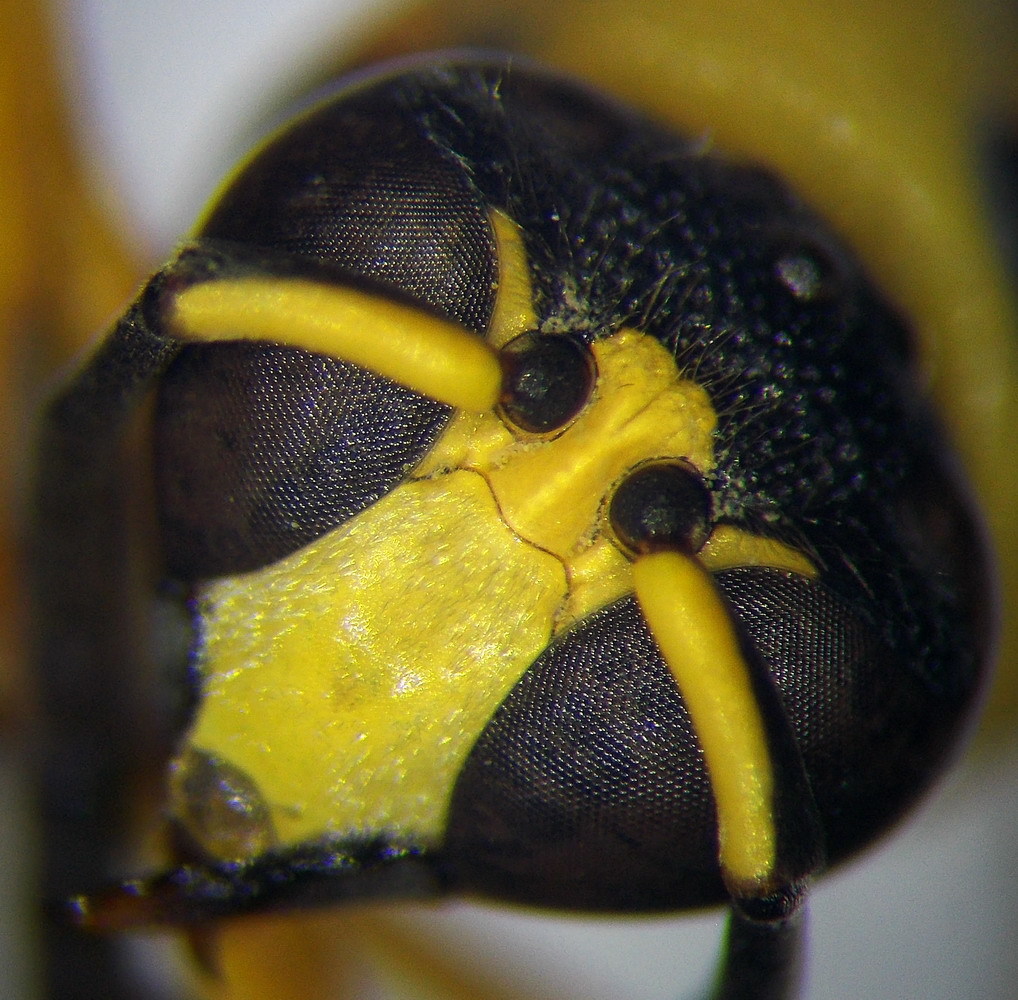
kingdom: Animalia
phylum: Arthropoda
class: Insecta
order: Hymenoptera
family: Vespidae
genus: Eumenes
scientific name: Eumenes tripunctatus
